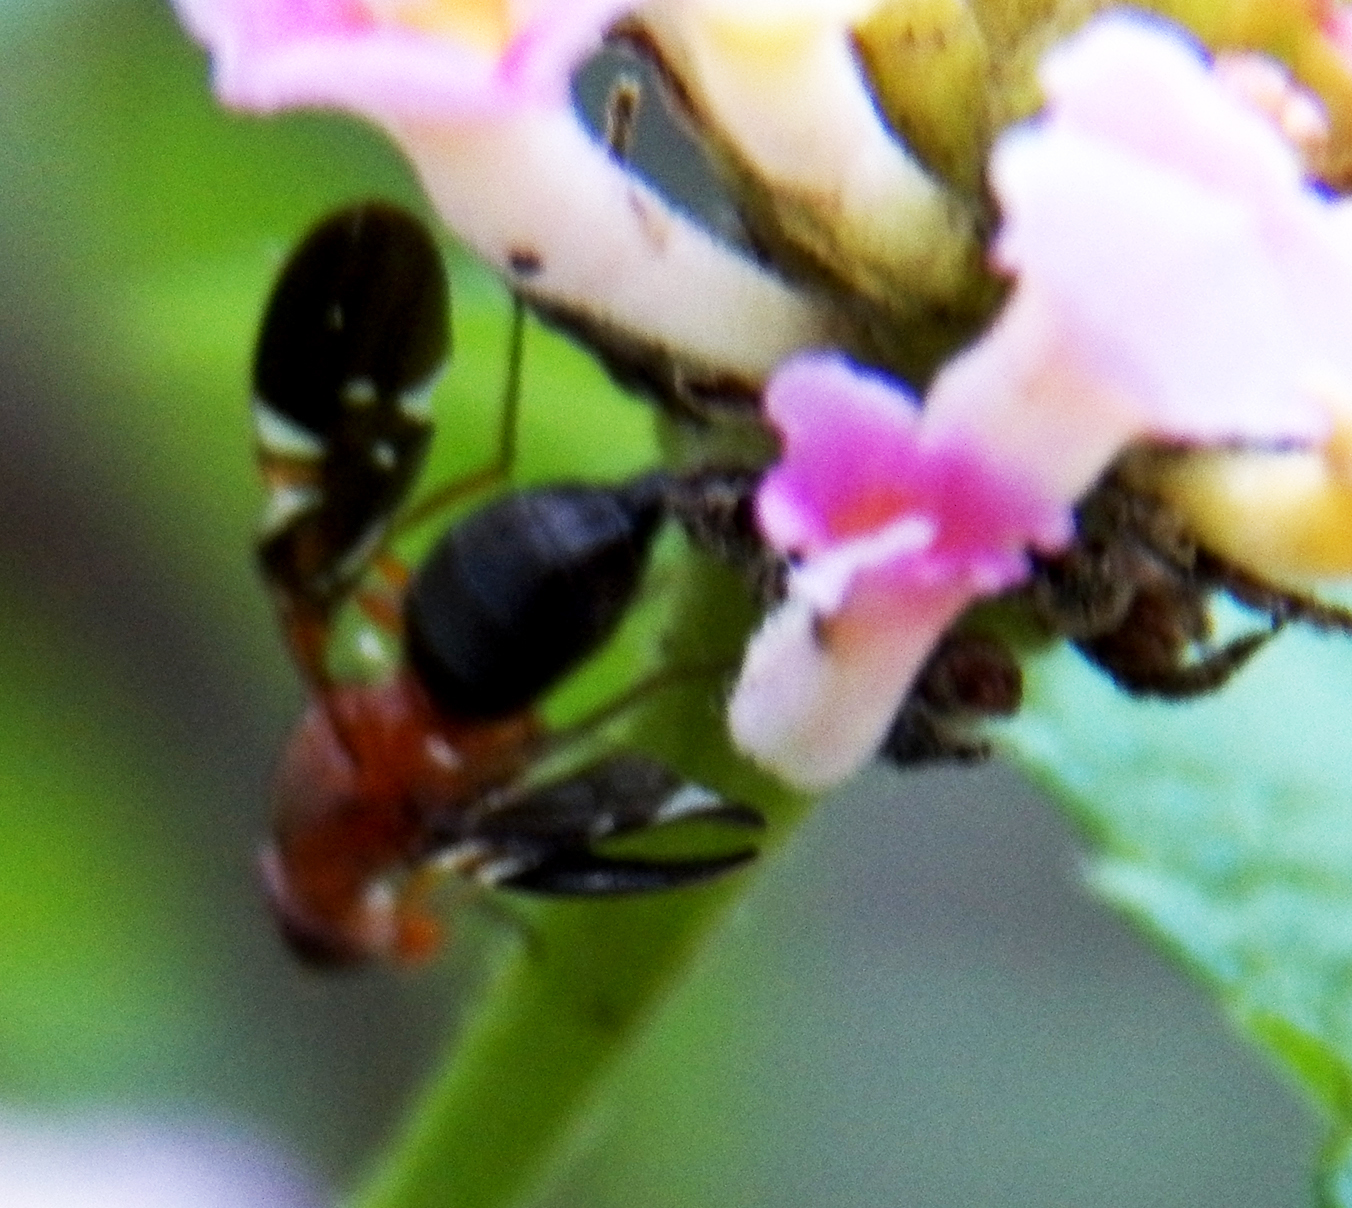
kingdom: Animalia
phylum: Arthropoda
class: Insecta
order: Diptera
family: Ulidiidae
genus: Delphinia
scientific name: Delphinia picta
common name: Common picture-winged fly
